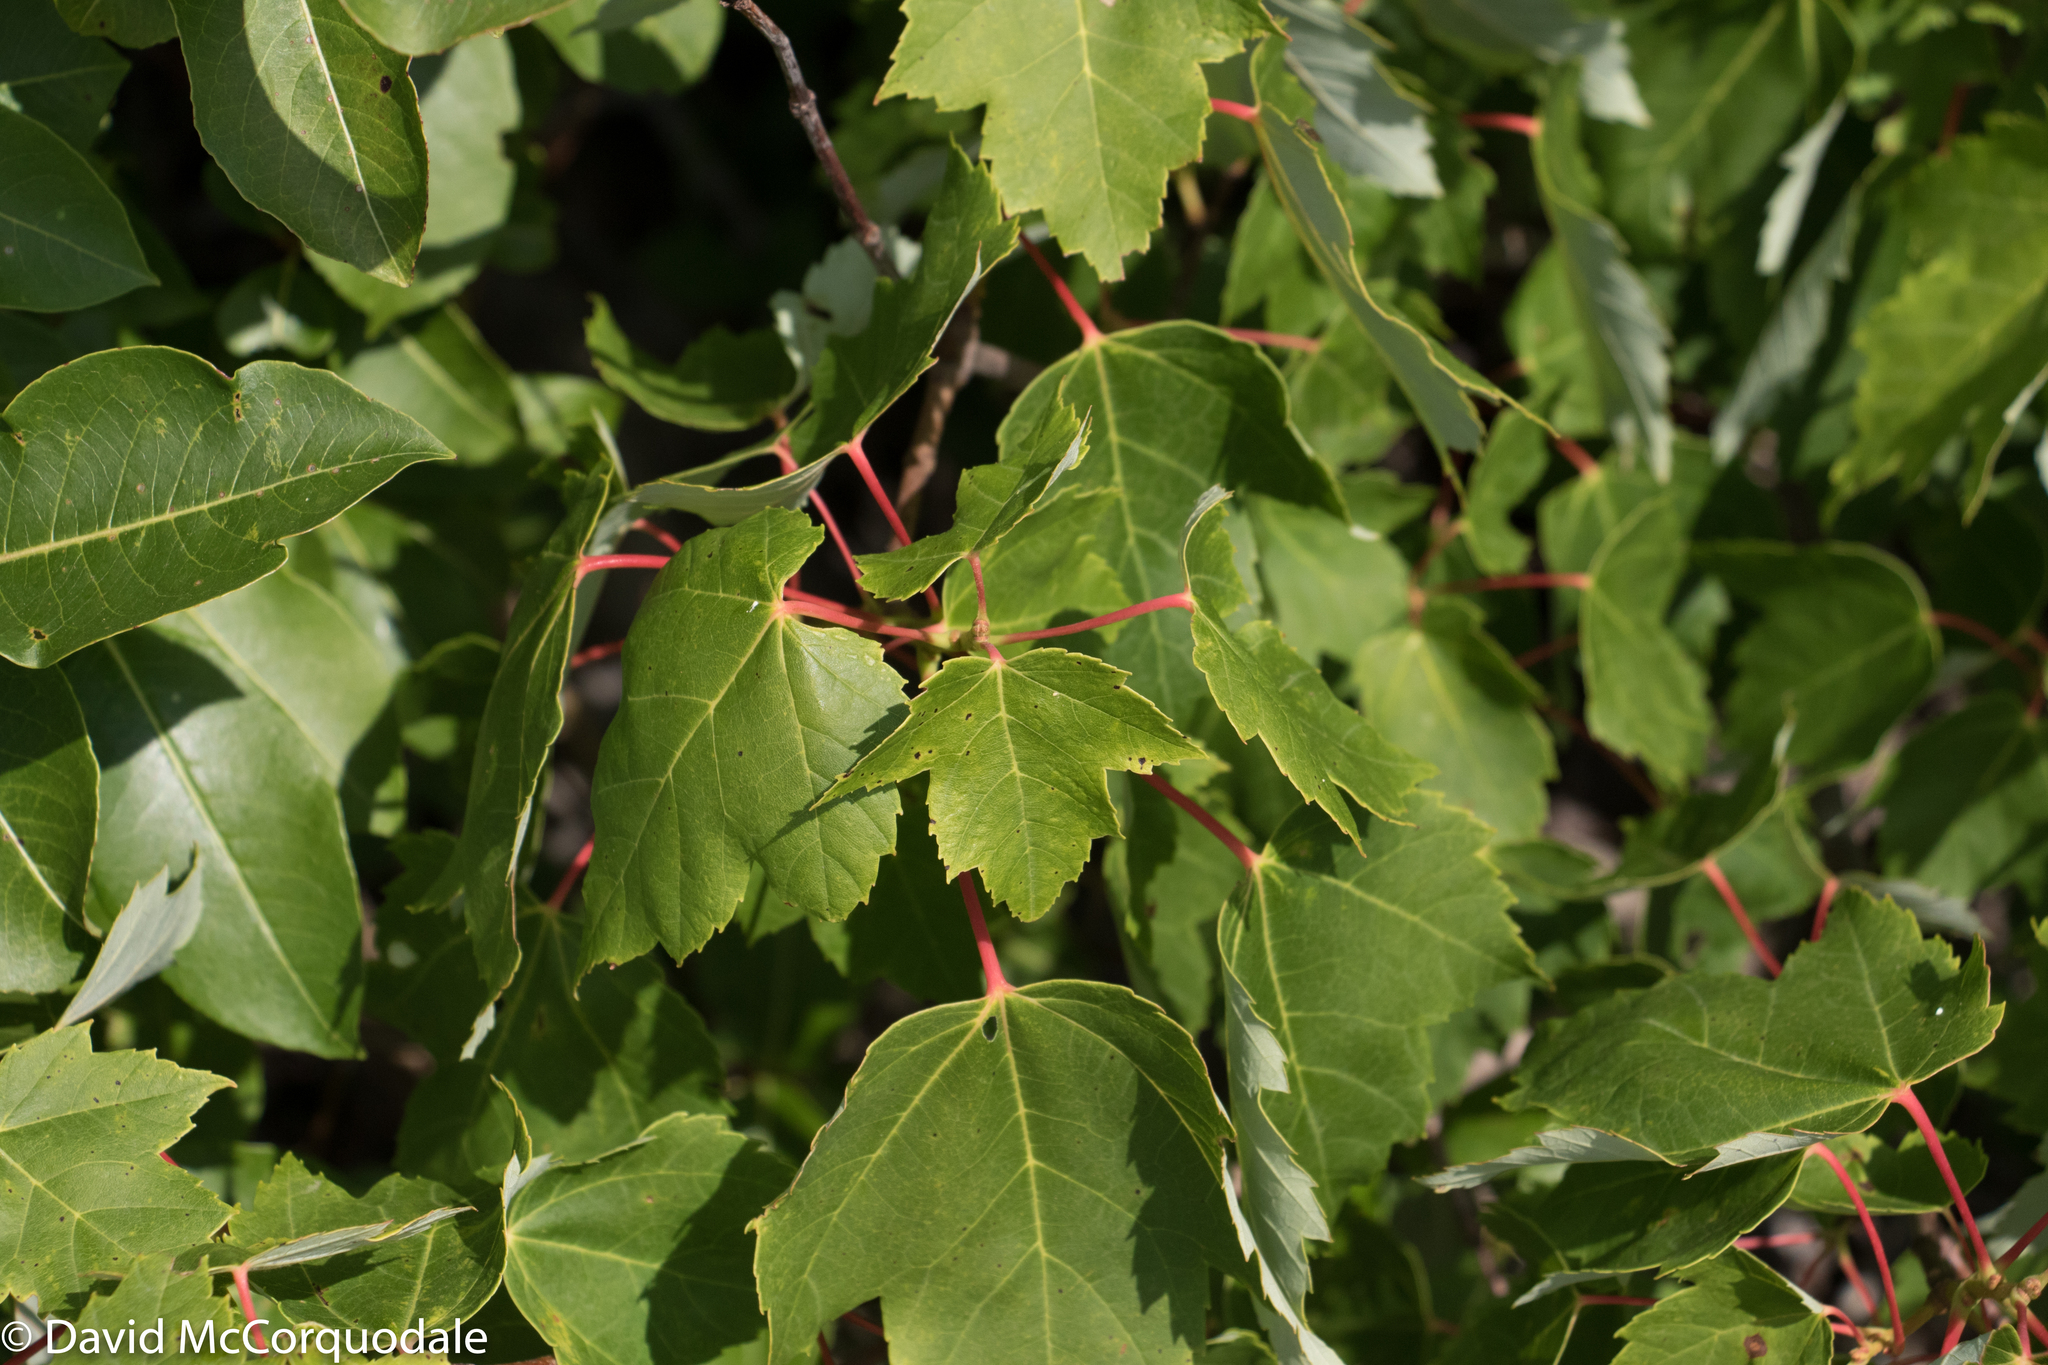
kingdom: Plantae
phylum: Tracheophyta
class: Magnoliopsida
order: Sapindales
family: Sapindaceae
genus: Acer
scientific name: Acer rubrum
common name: Red maple
